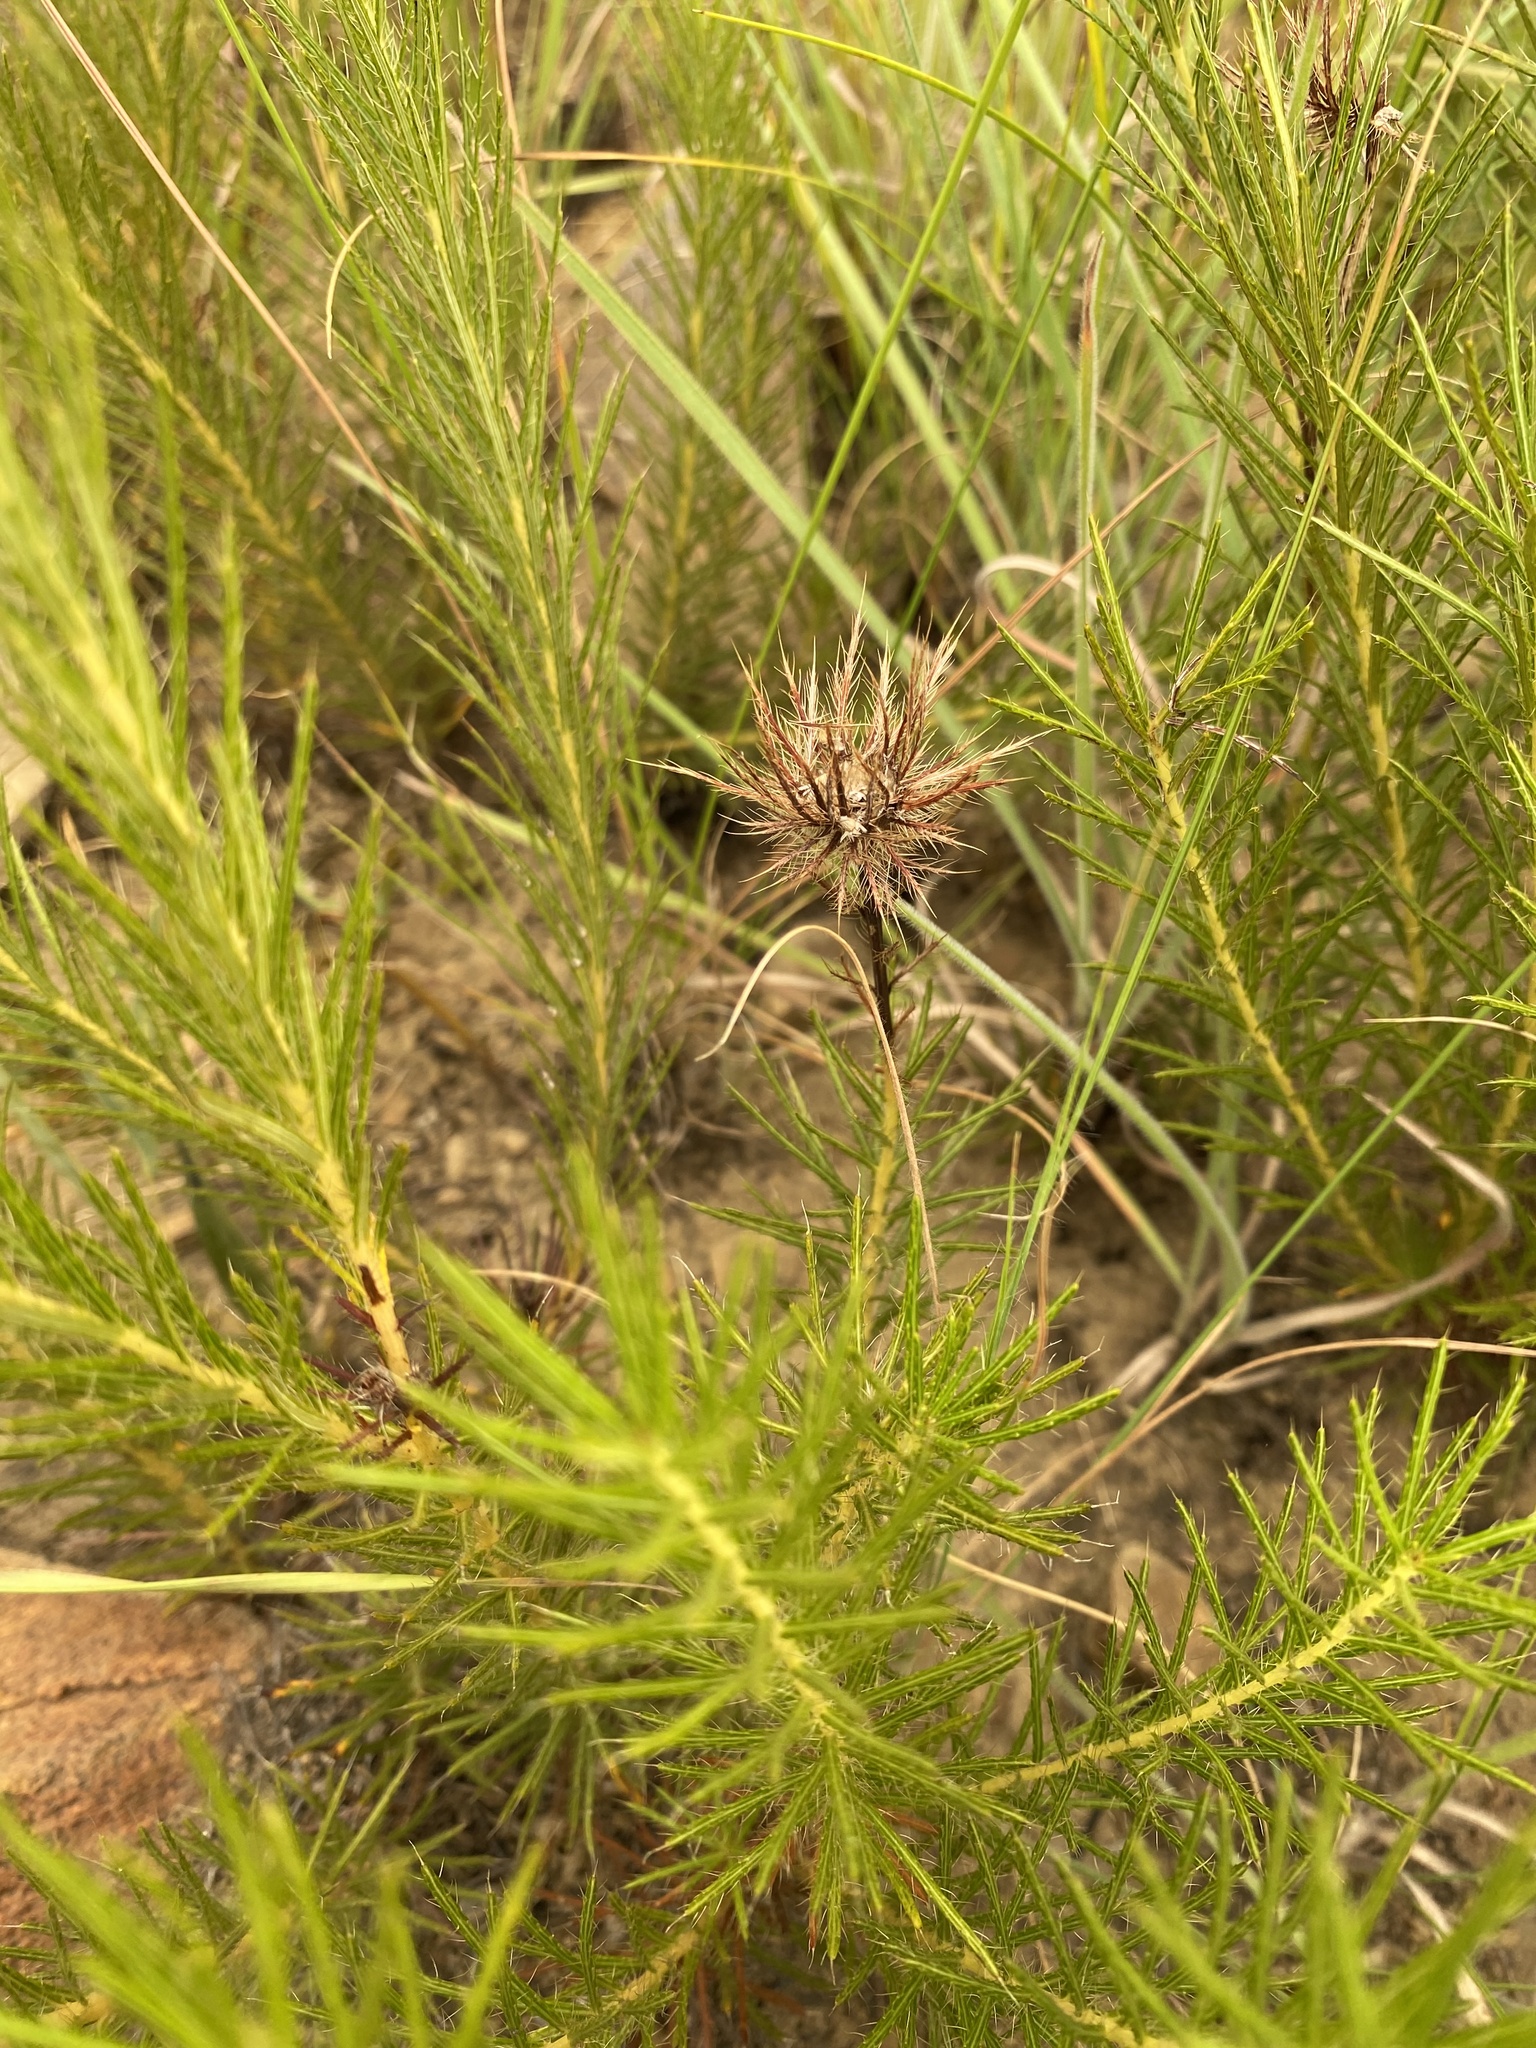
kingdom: Plantae
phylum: Tracheophyta
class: Magnoliopsida
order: Asterales
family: Asteraceae
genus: Berkheya
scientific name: Berkheya subulata
